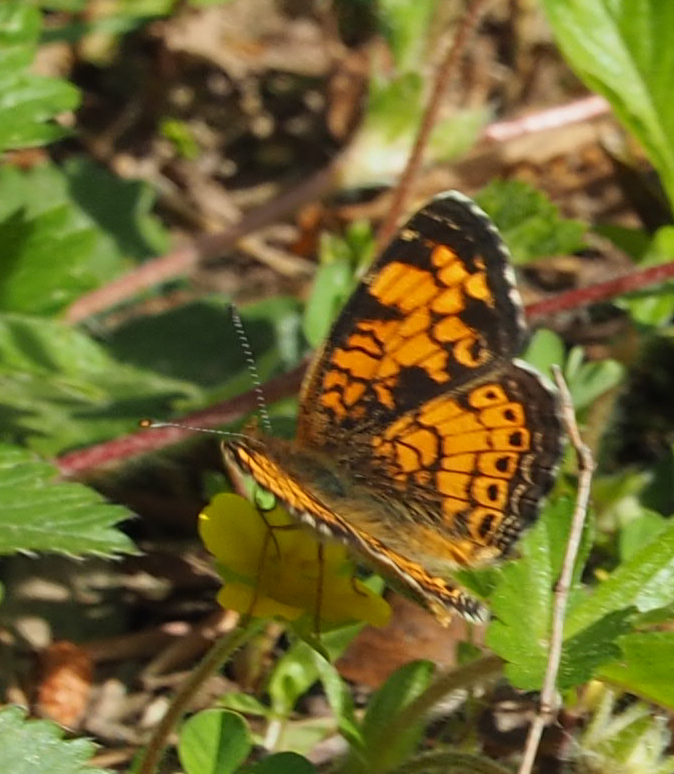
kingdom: Animalia
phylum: Arthropoda
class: Insecta
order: Lepidoptera
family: Nymphalidae
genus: Phyciodes
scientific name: Phyciodes tharos
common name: Pearl crescent
